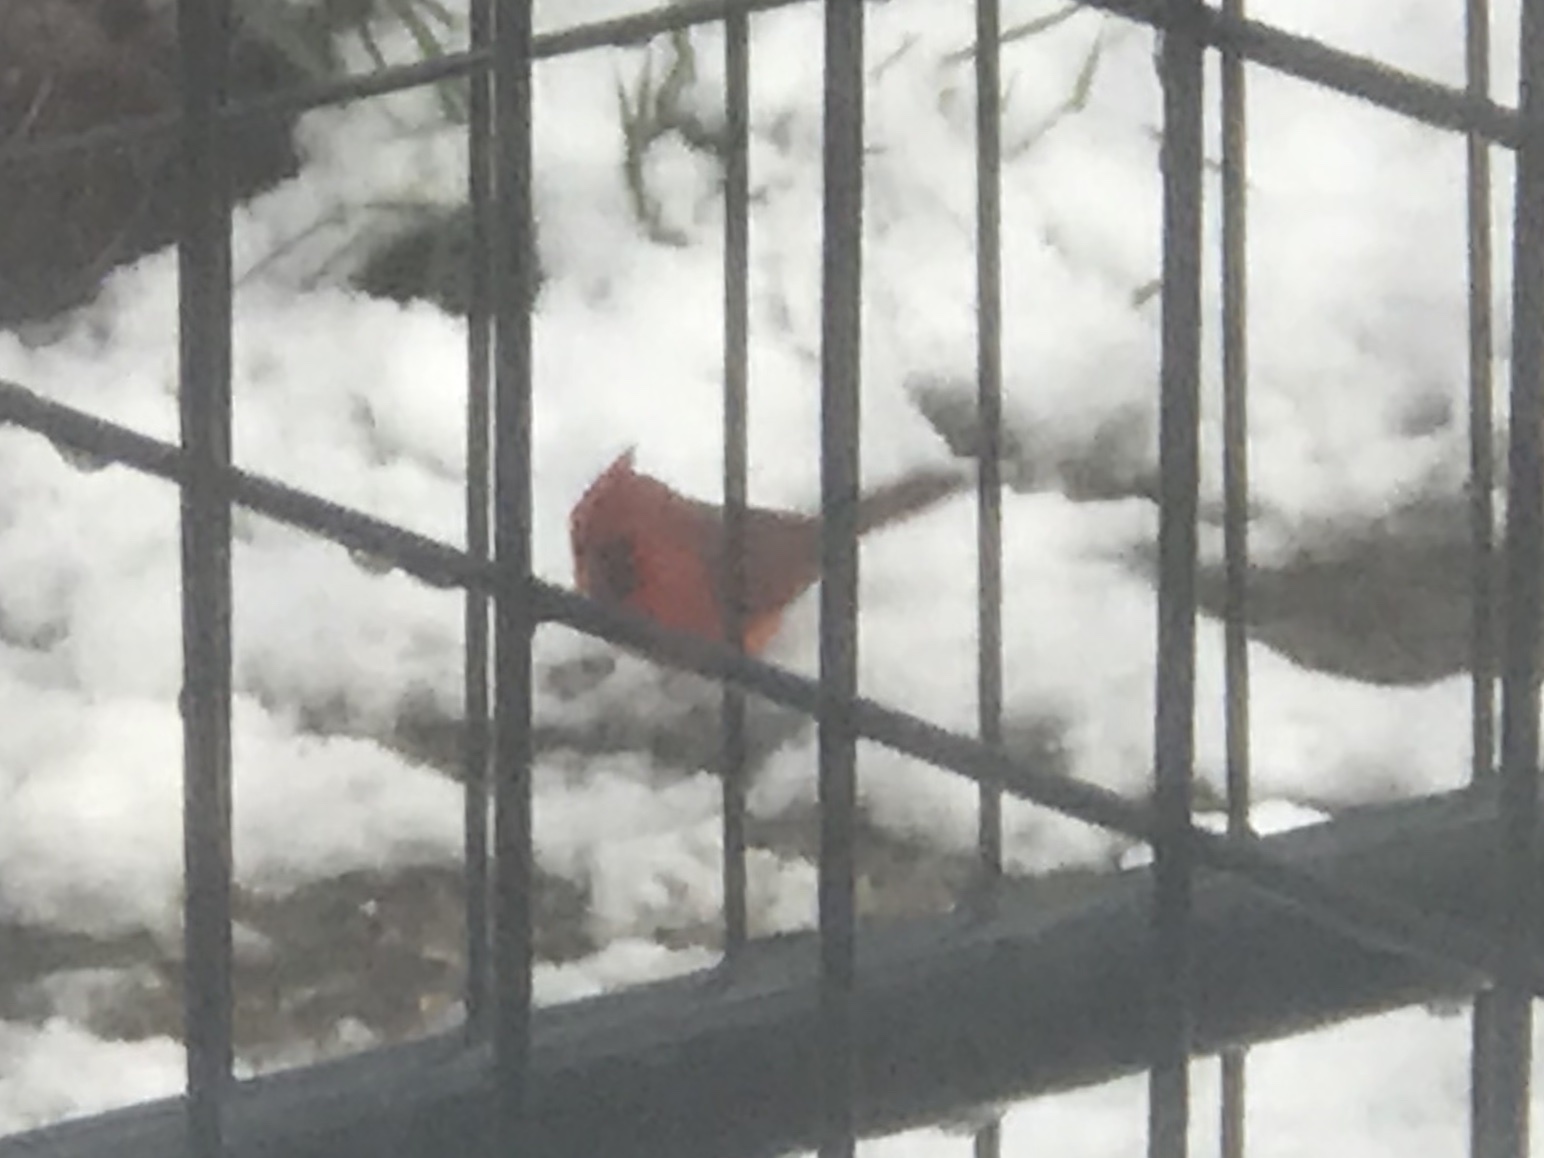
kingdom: Animalia
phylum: Chordata
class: Aves
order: Passeriformes
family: Cardinalidae
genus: Cardinalis
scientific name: Cardinalis cardinalis
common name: Northern cardinal
